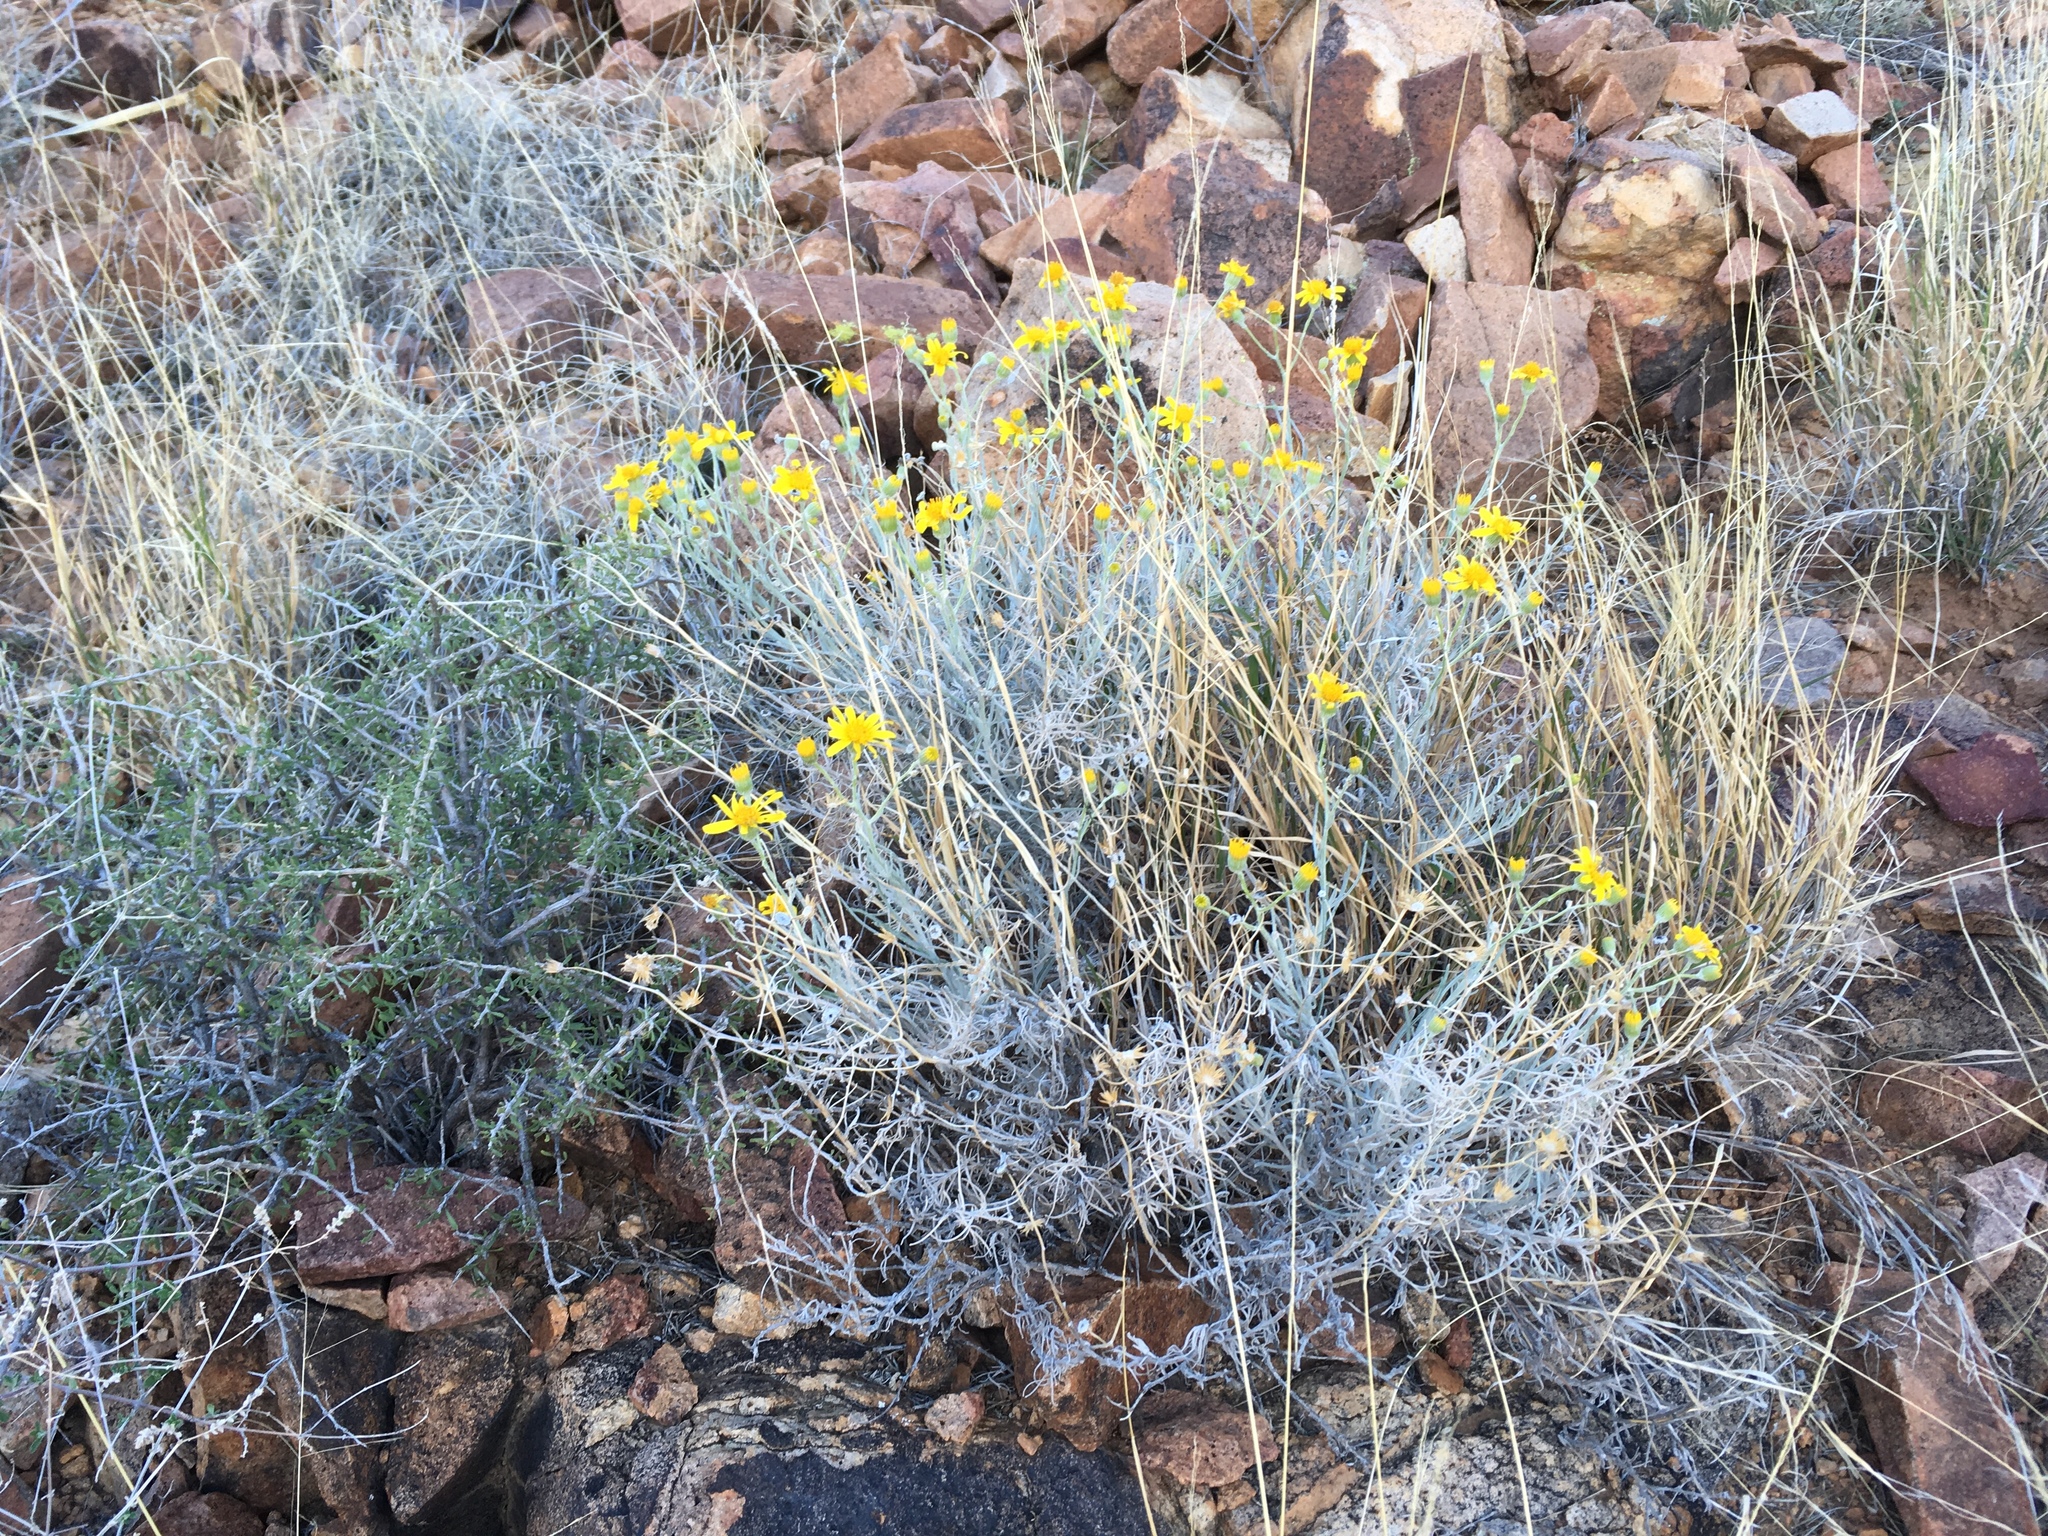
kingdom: Plantae
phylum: Tracheophyta
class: Magnoliopsida
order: Asterales
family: Asteraceae
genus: Senecio
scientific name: Senecio flaccidus
